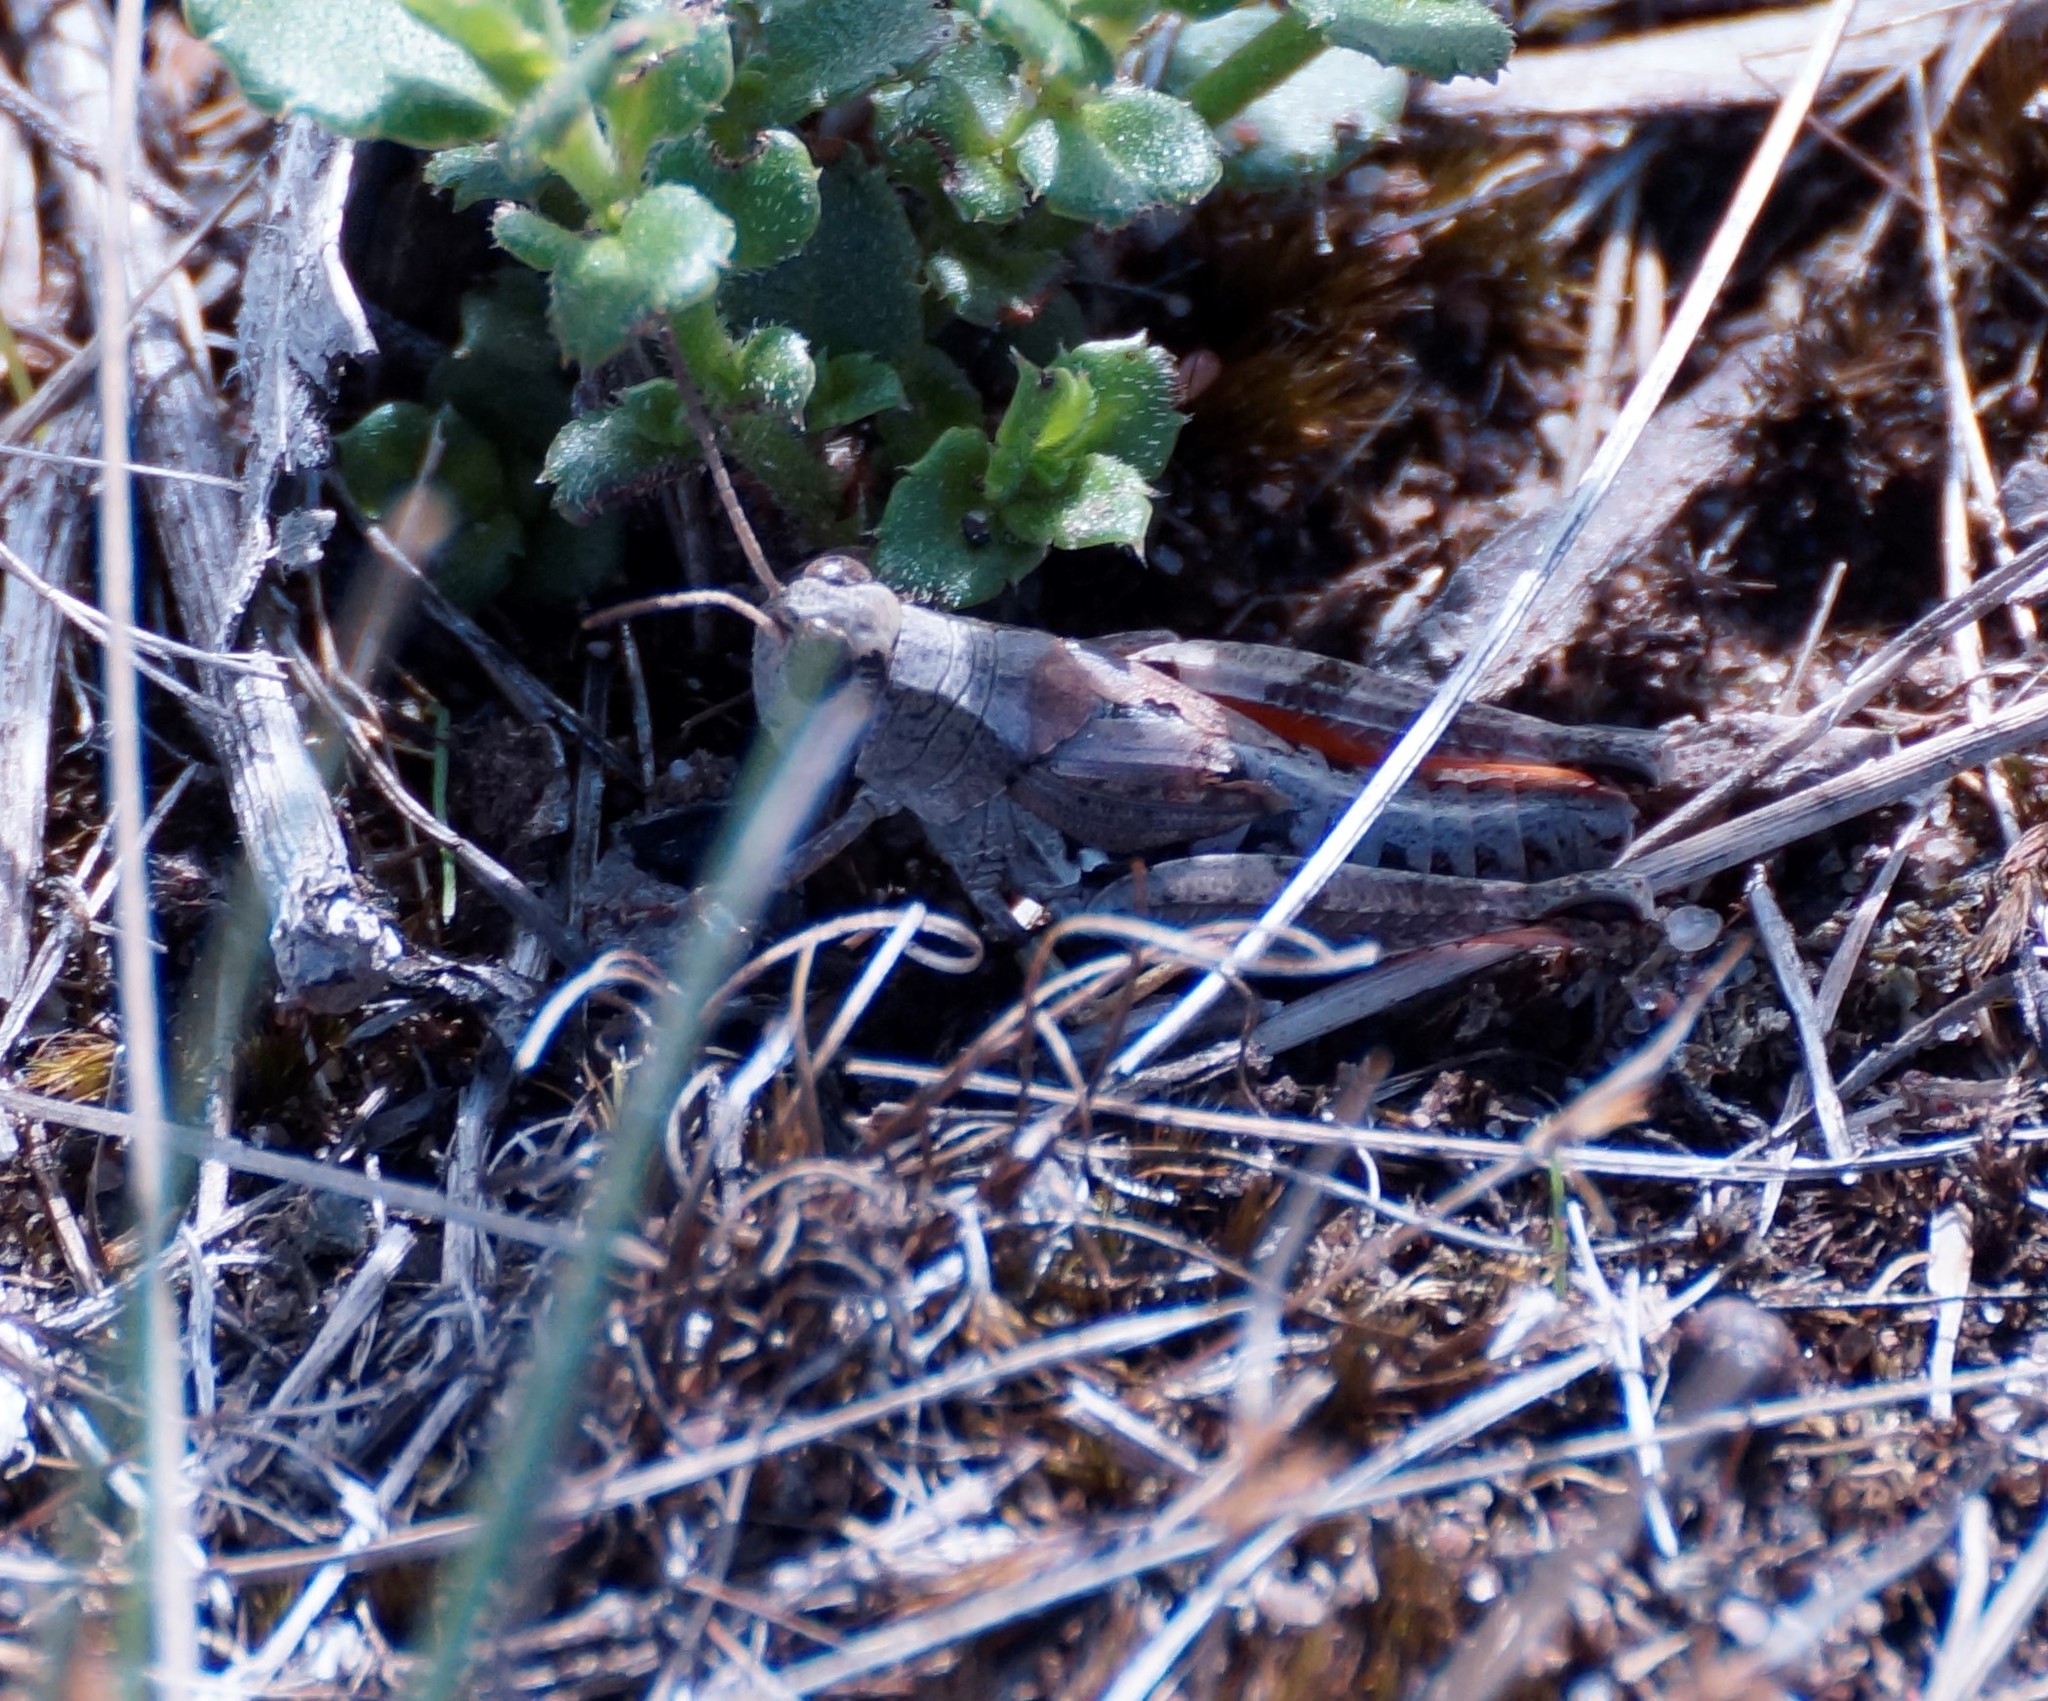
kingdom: Animalia
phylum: Arthropoda
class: Insecta
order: Orthoptera
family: Acrididae
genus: Phaulacridium
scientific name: Phaulacridium vittatum
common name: Wingless grasshopper
